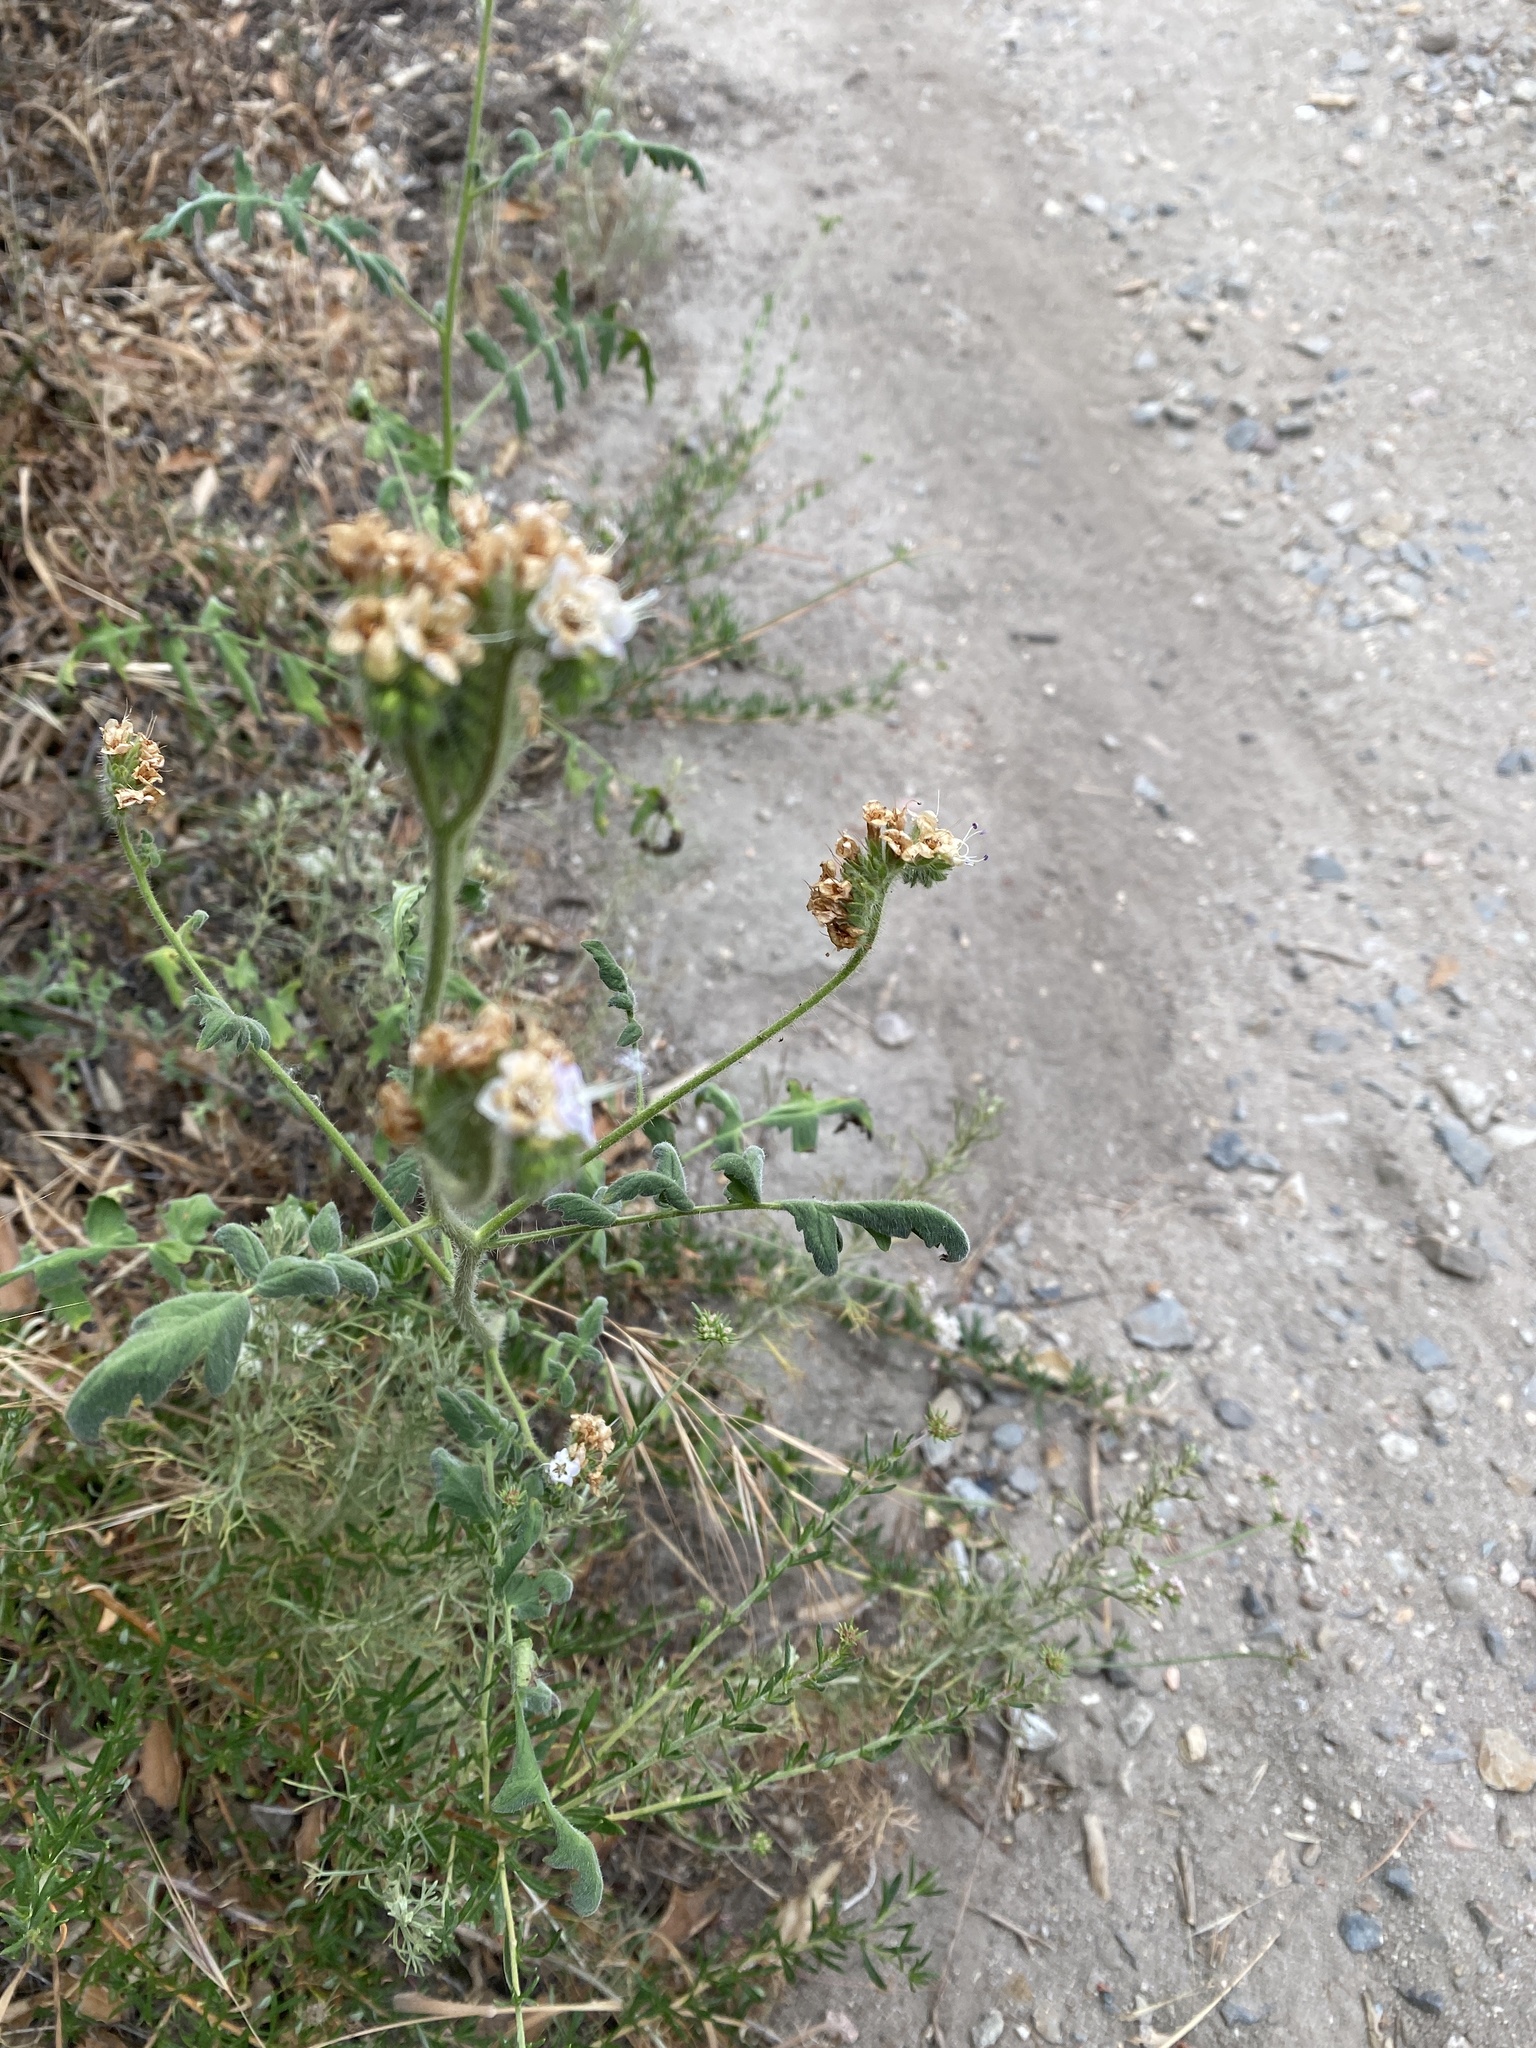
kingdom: Plantae
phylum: Tracheophyta
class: Magnoliopsida
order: Boraginales
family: Hydrophyllaceae
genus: Phacelia
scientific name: Phacelia ramosissima
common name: Branching phacelia
